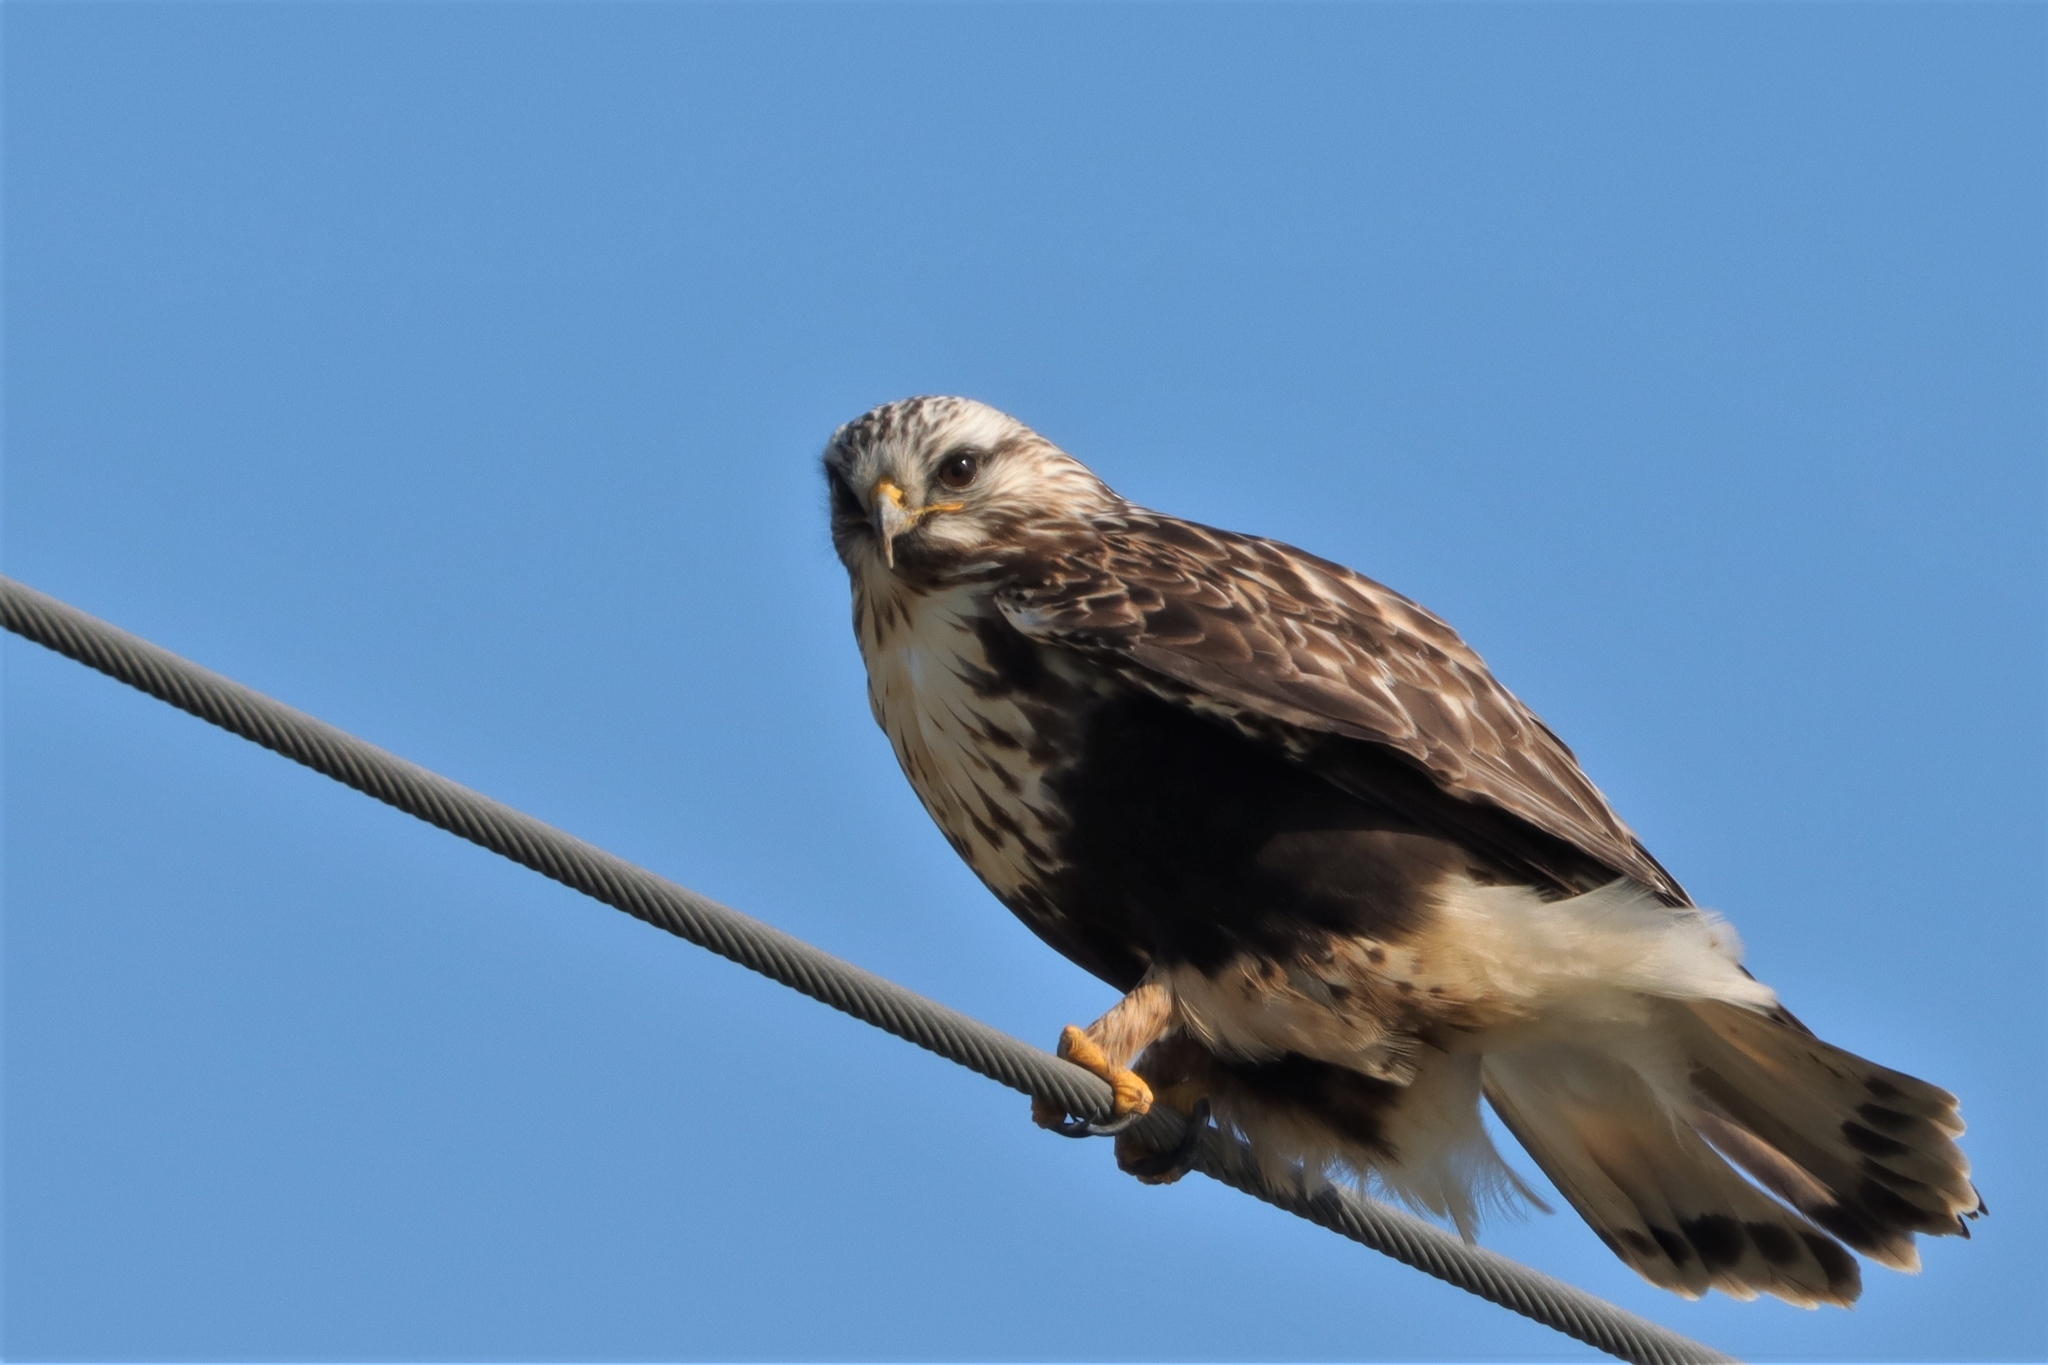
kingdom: Animalia
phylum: Chordata
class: Aves
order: Accipitriformes
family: Accipitridae
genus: Buteo
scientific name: Buteo lagopus
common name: Rough-legged buzzard
